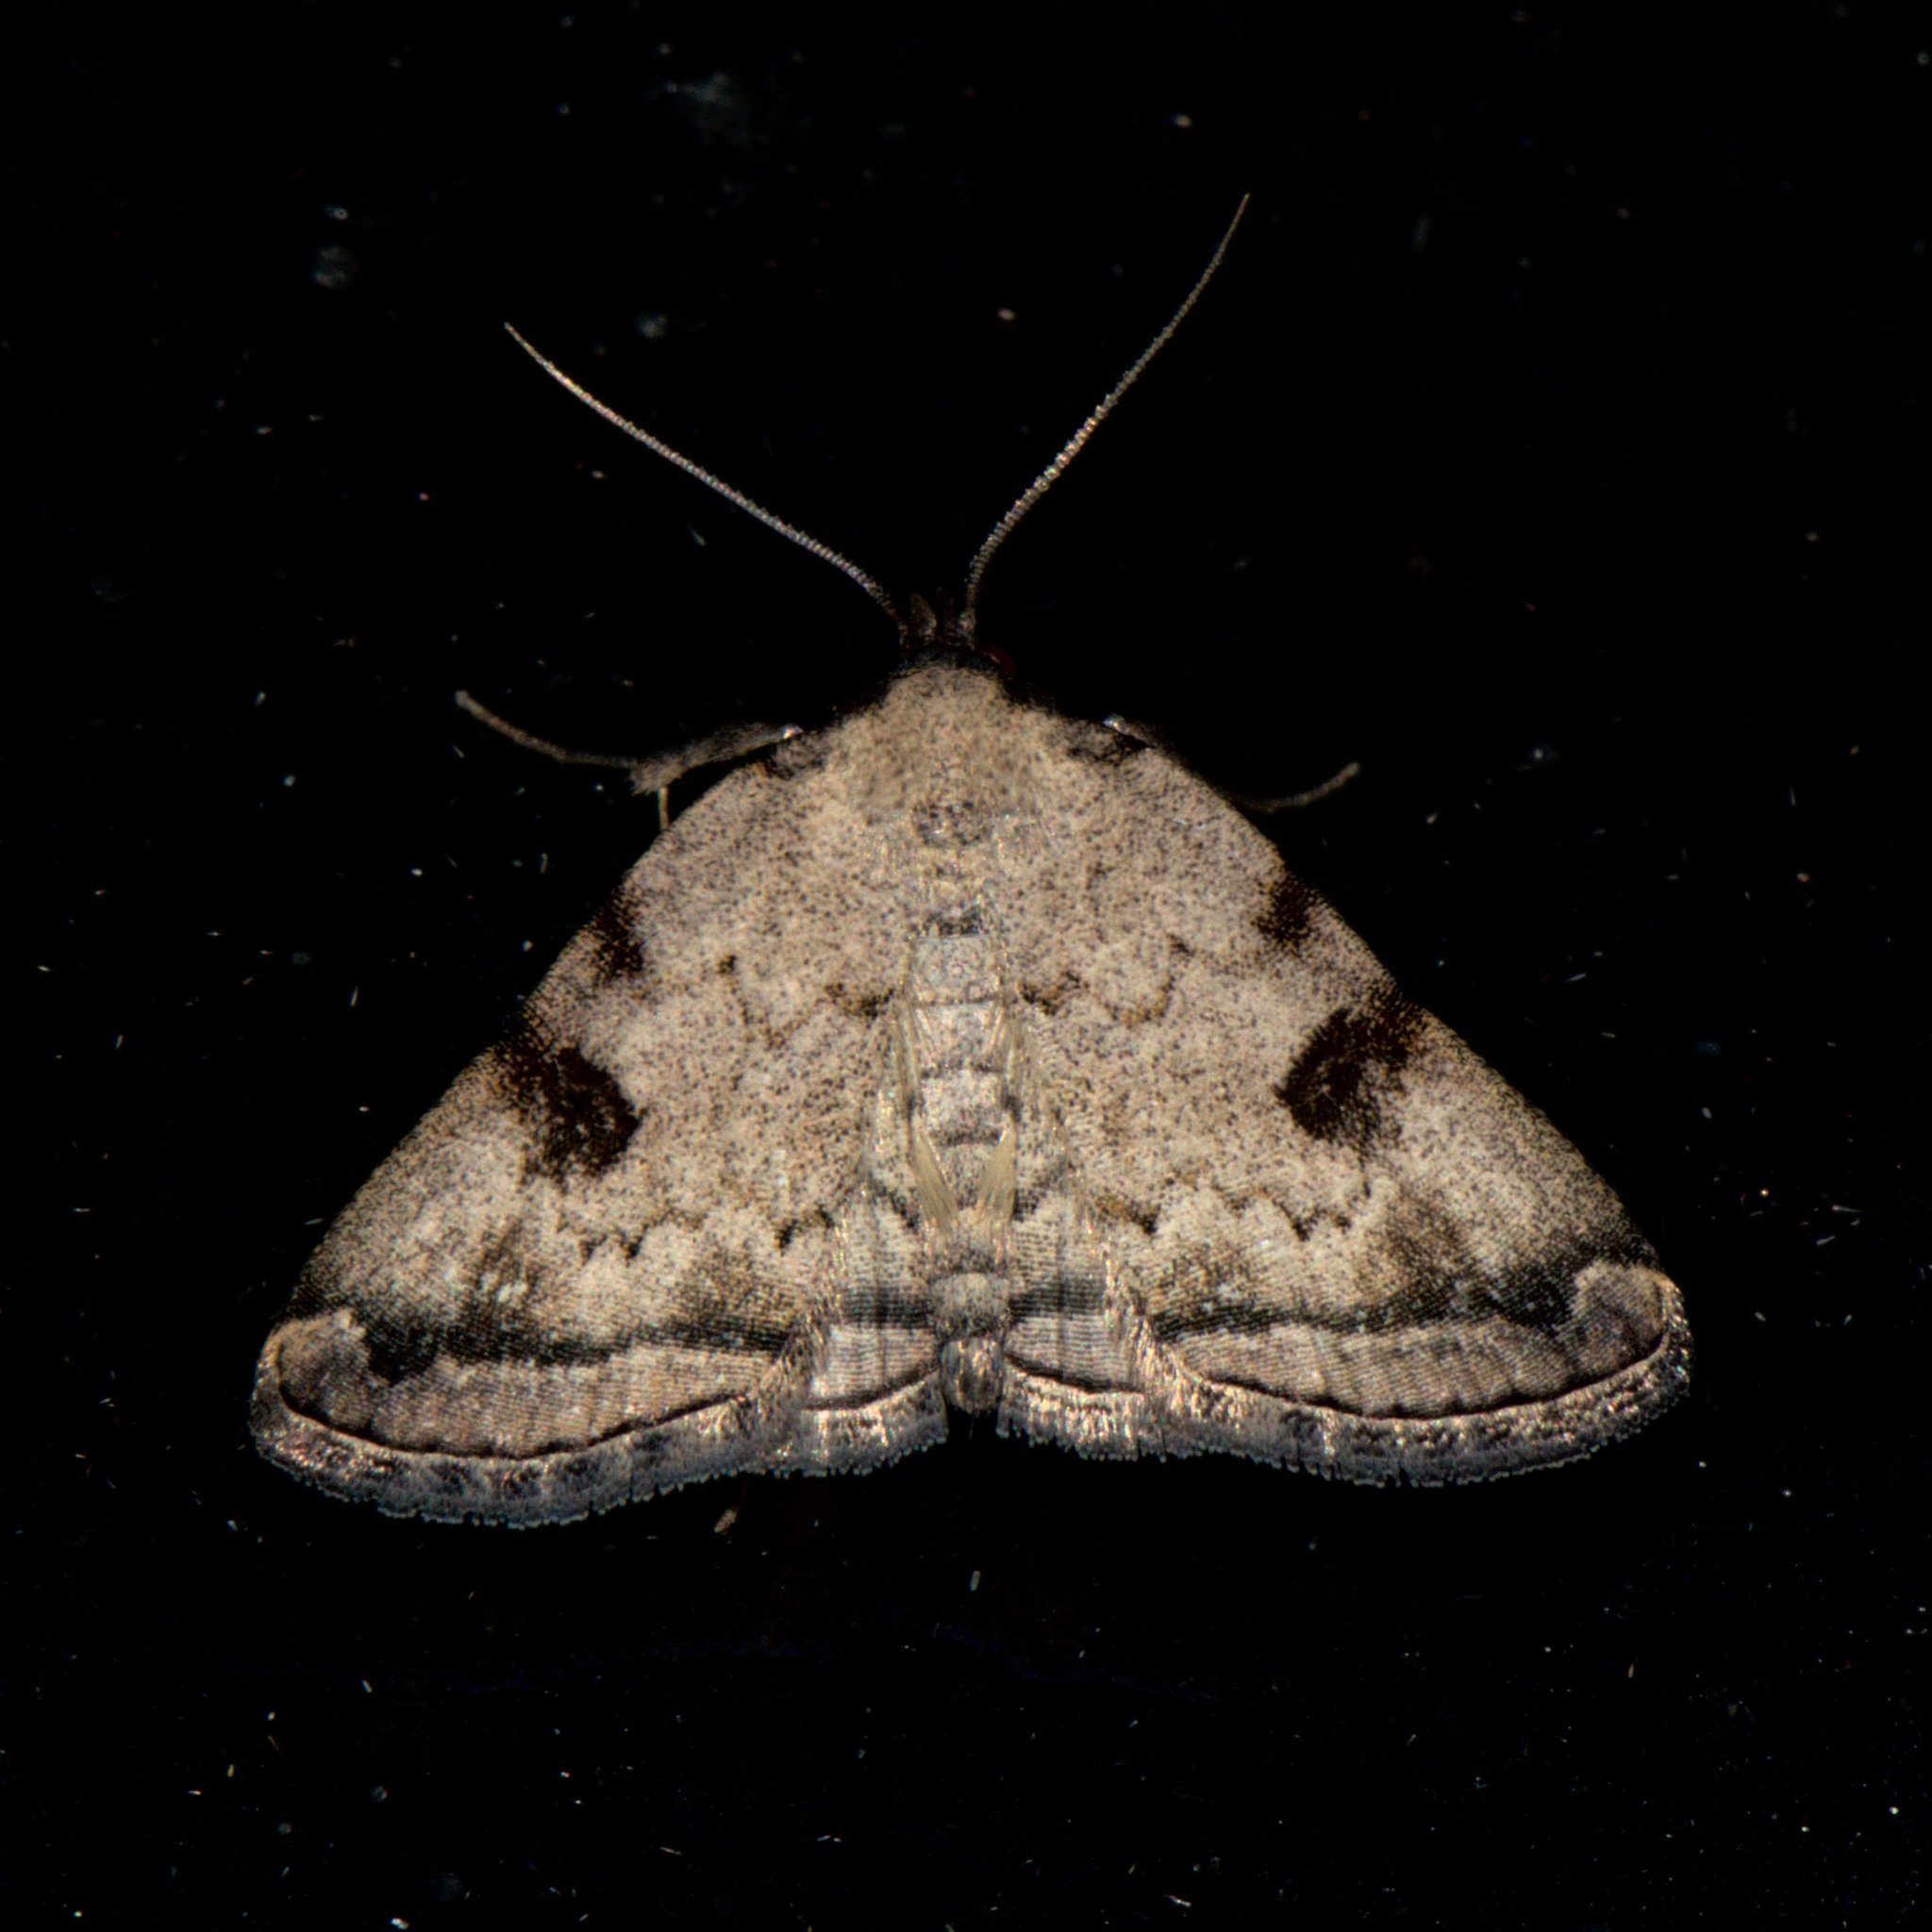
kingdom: Animalia
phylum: Arthropoda
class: Insecta
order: Lepidoptera
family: Erebidae
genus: Herminia
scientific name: Herminia
